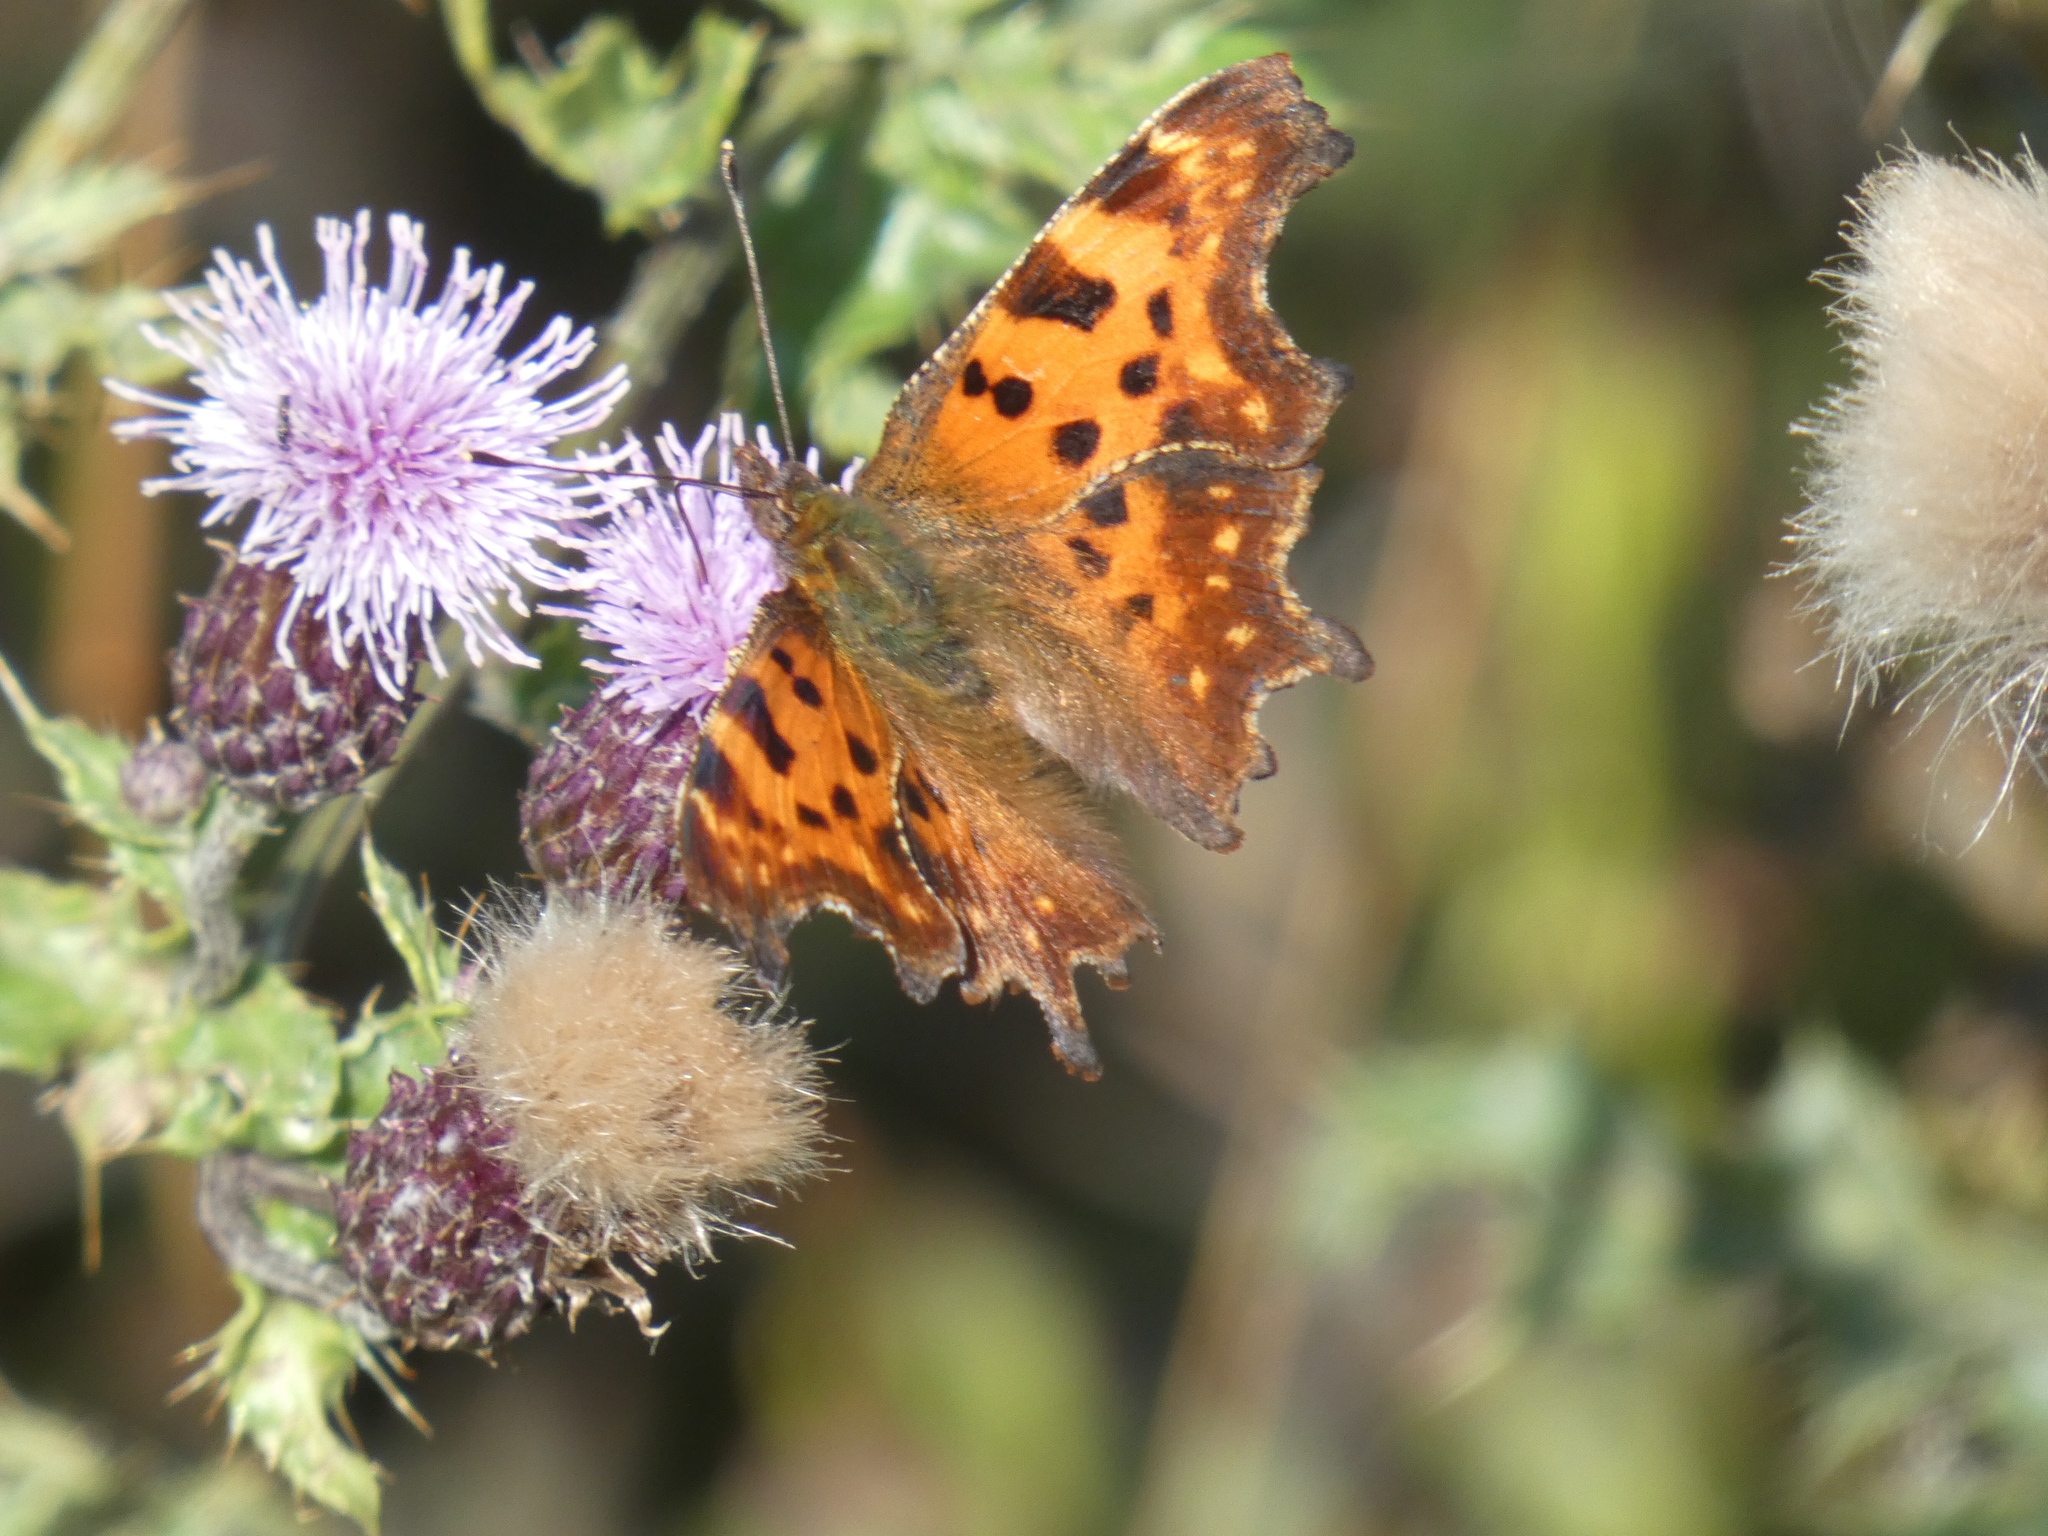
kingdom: Animalia
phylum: Arthropoda
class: Insecta
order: Lepidoptera
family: Nymphalidae
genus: Polygonia
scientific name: Polygonia c-album
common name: Comma
